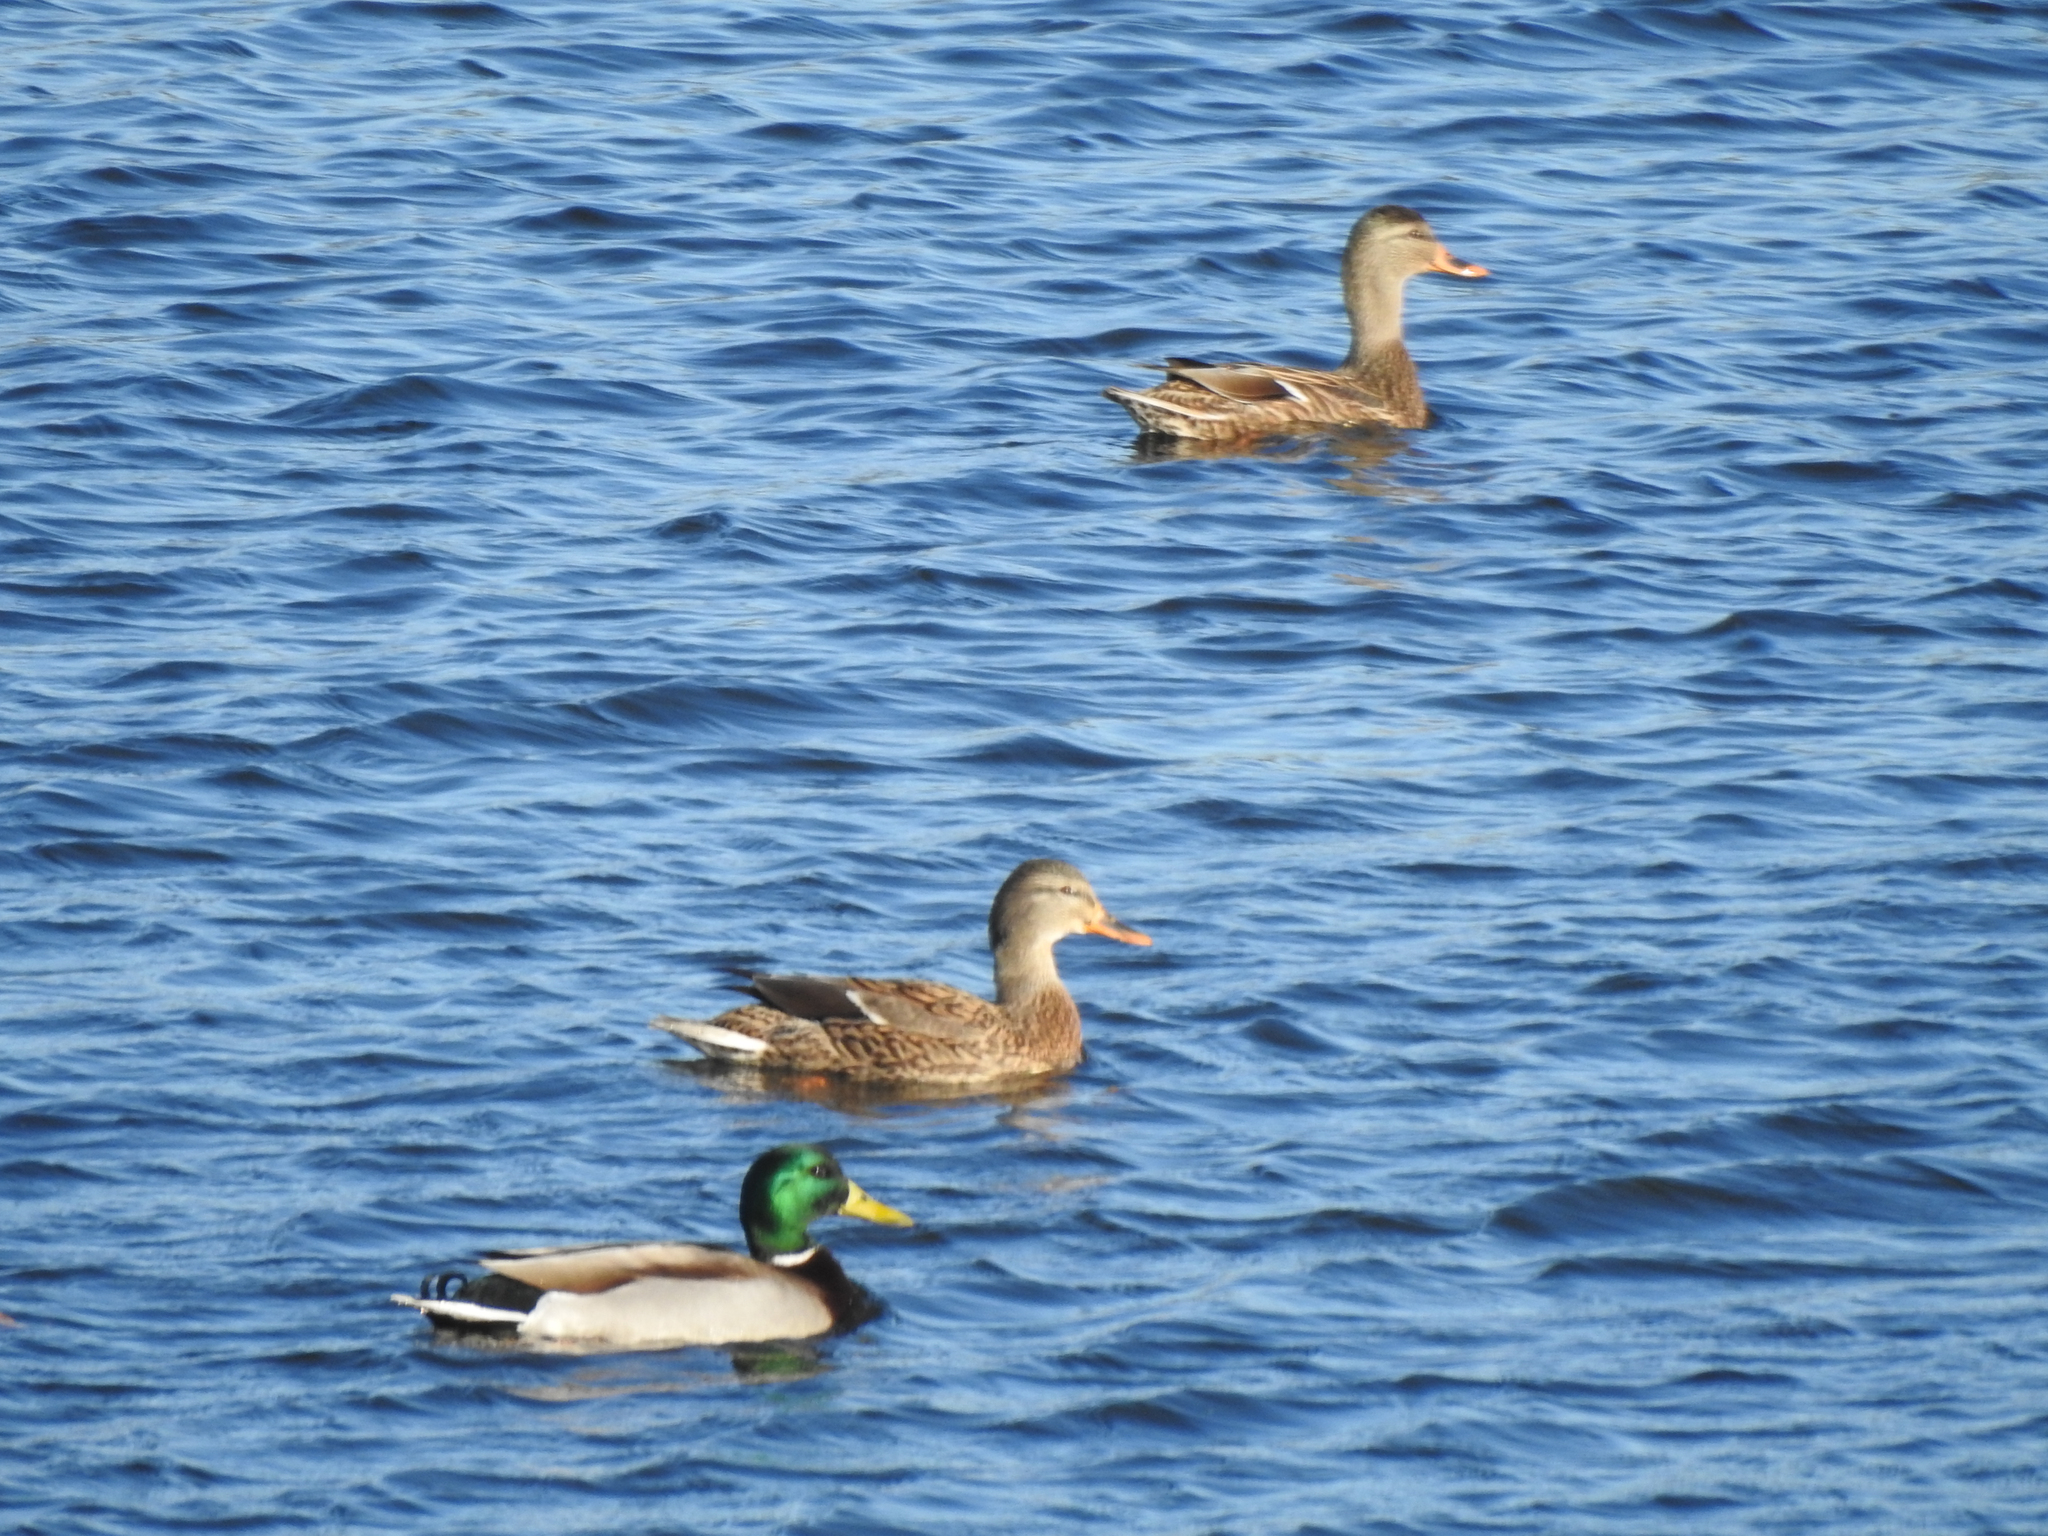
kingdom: Animalia
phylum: Chordata
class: Aves
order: Anseriformes
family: Anatidae
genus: Anas
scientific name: Anas platyrhynchos
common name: Mallard
